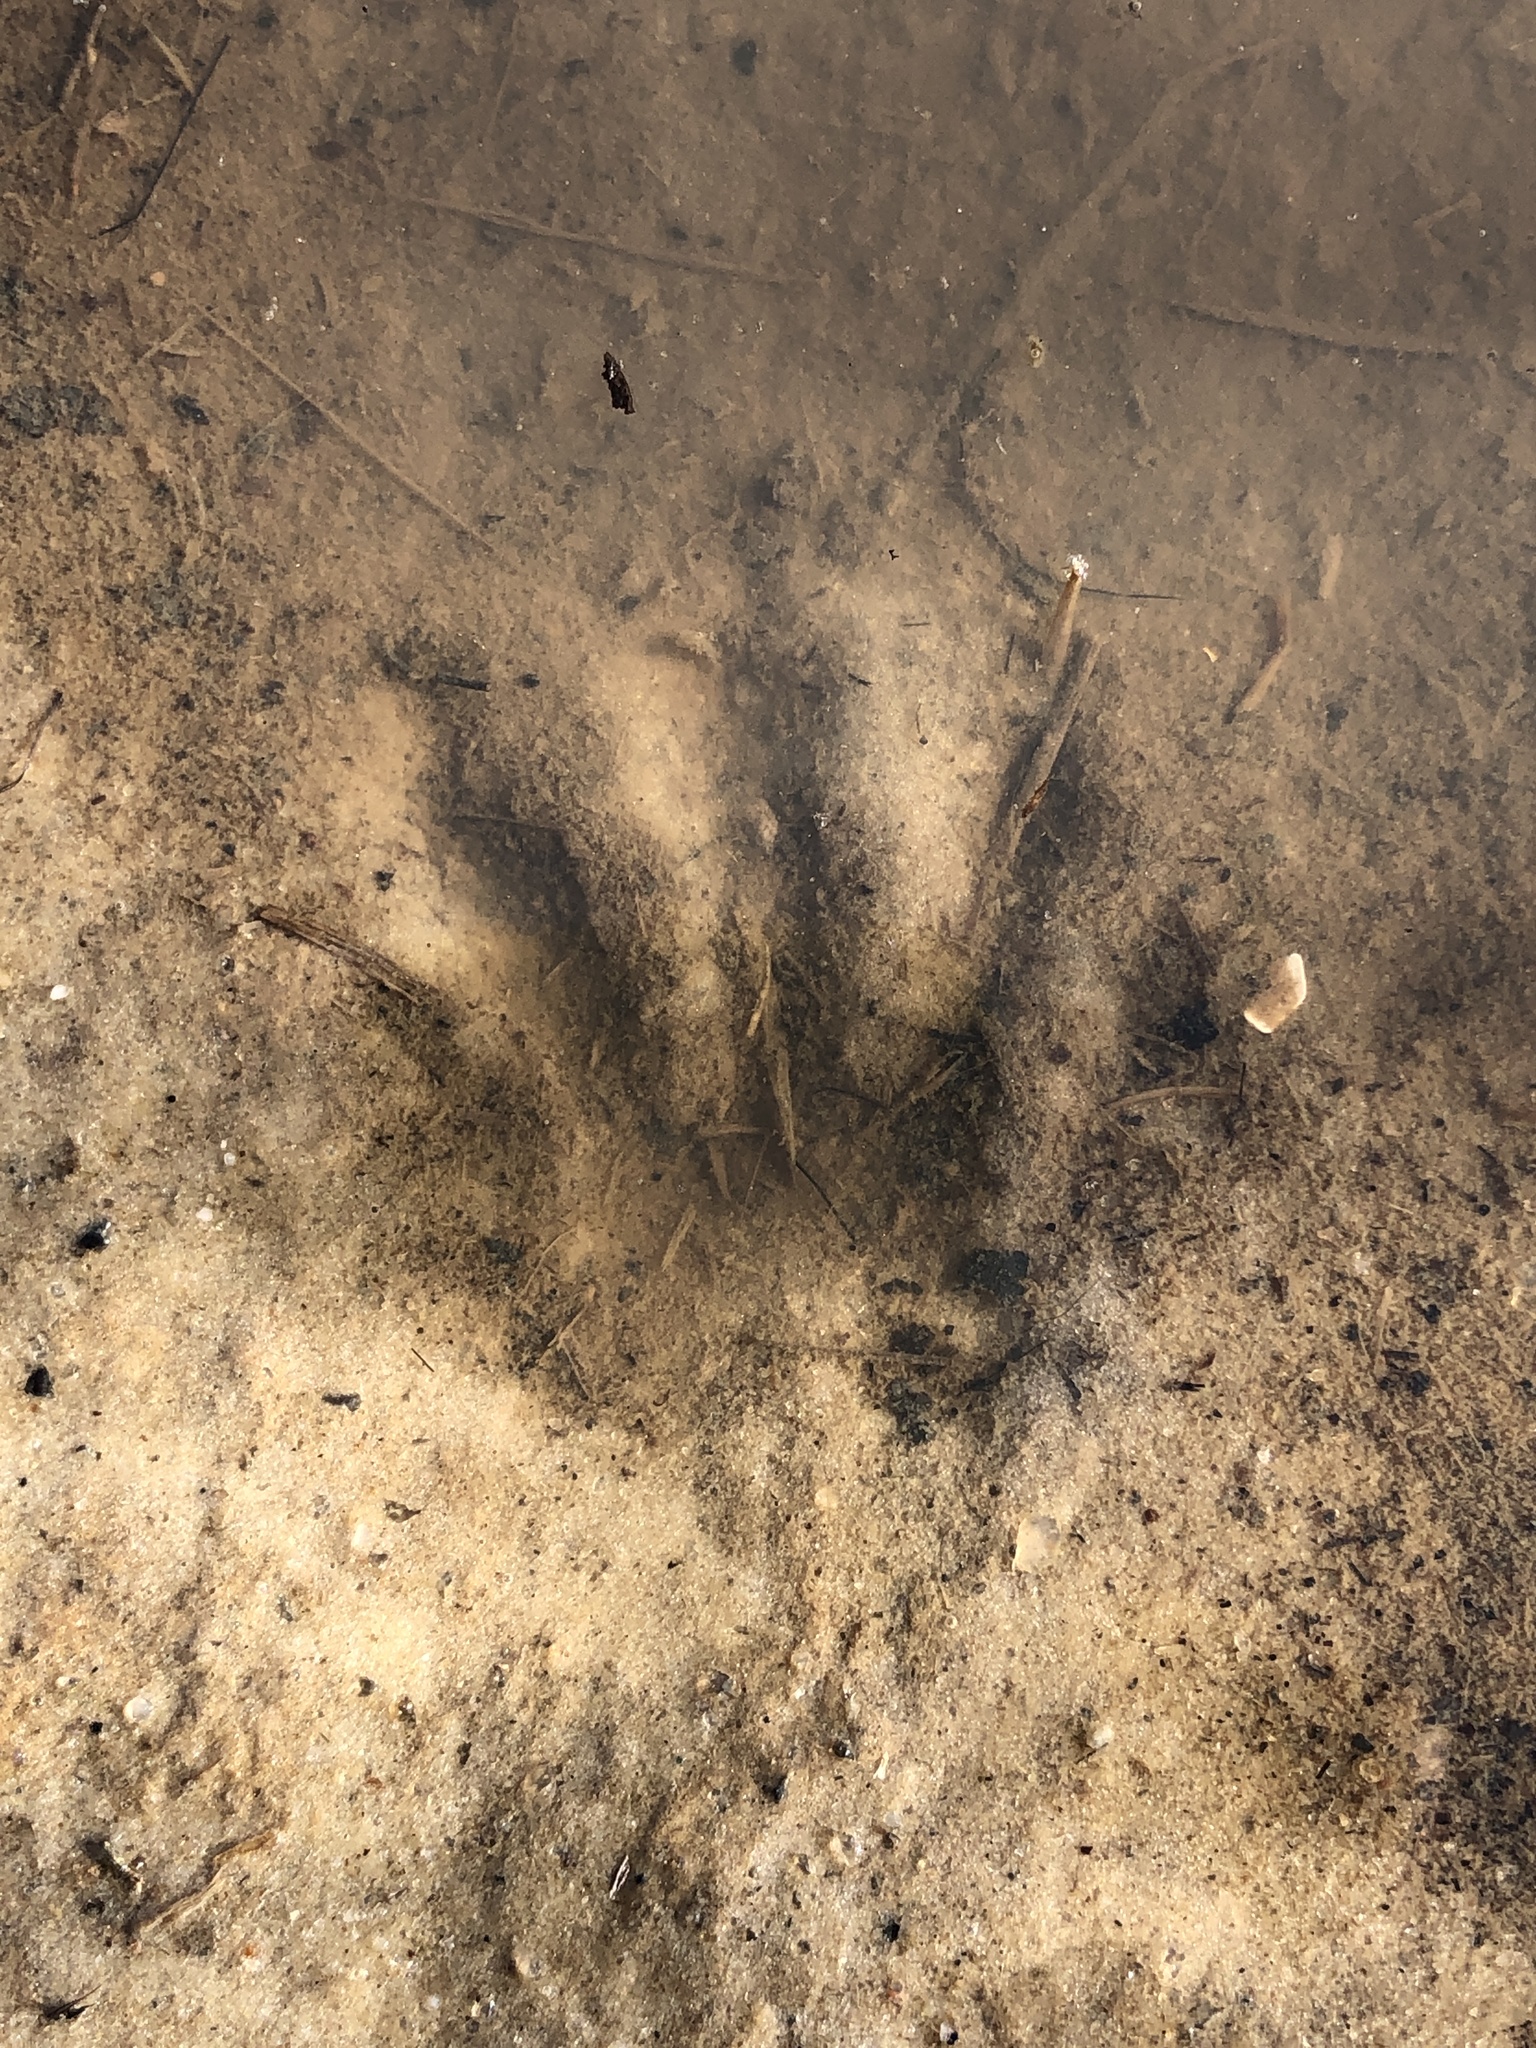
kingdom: Animalia
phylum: Chordata
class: Mammalia
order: Carnivora
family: Procyonidae
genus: Procyon
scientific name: Procyon lotor
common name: Raccoon
